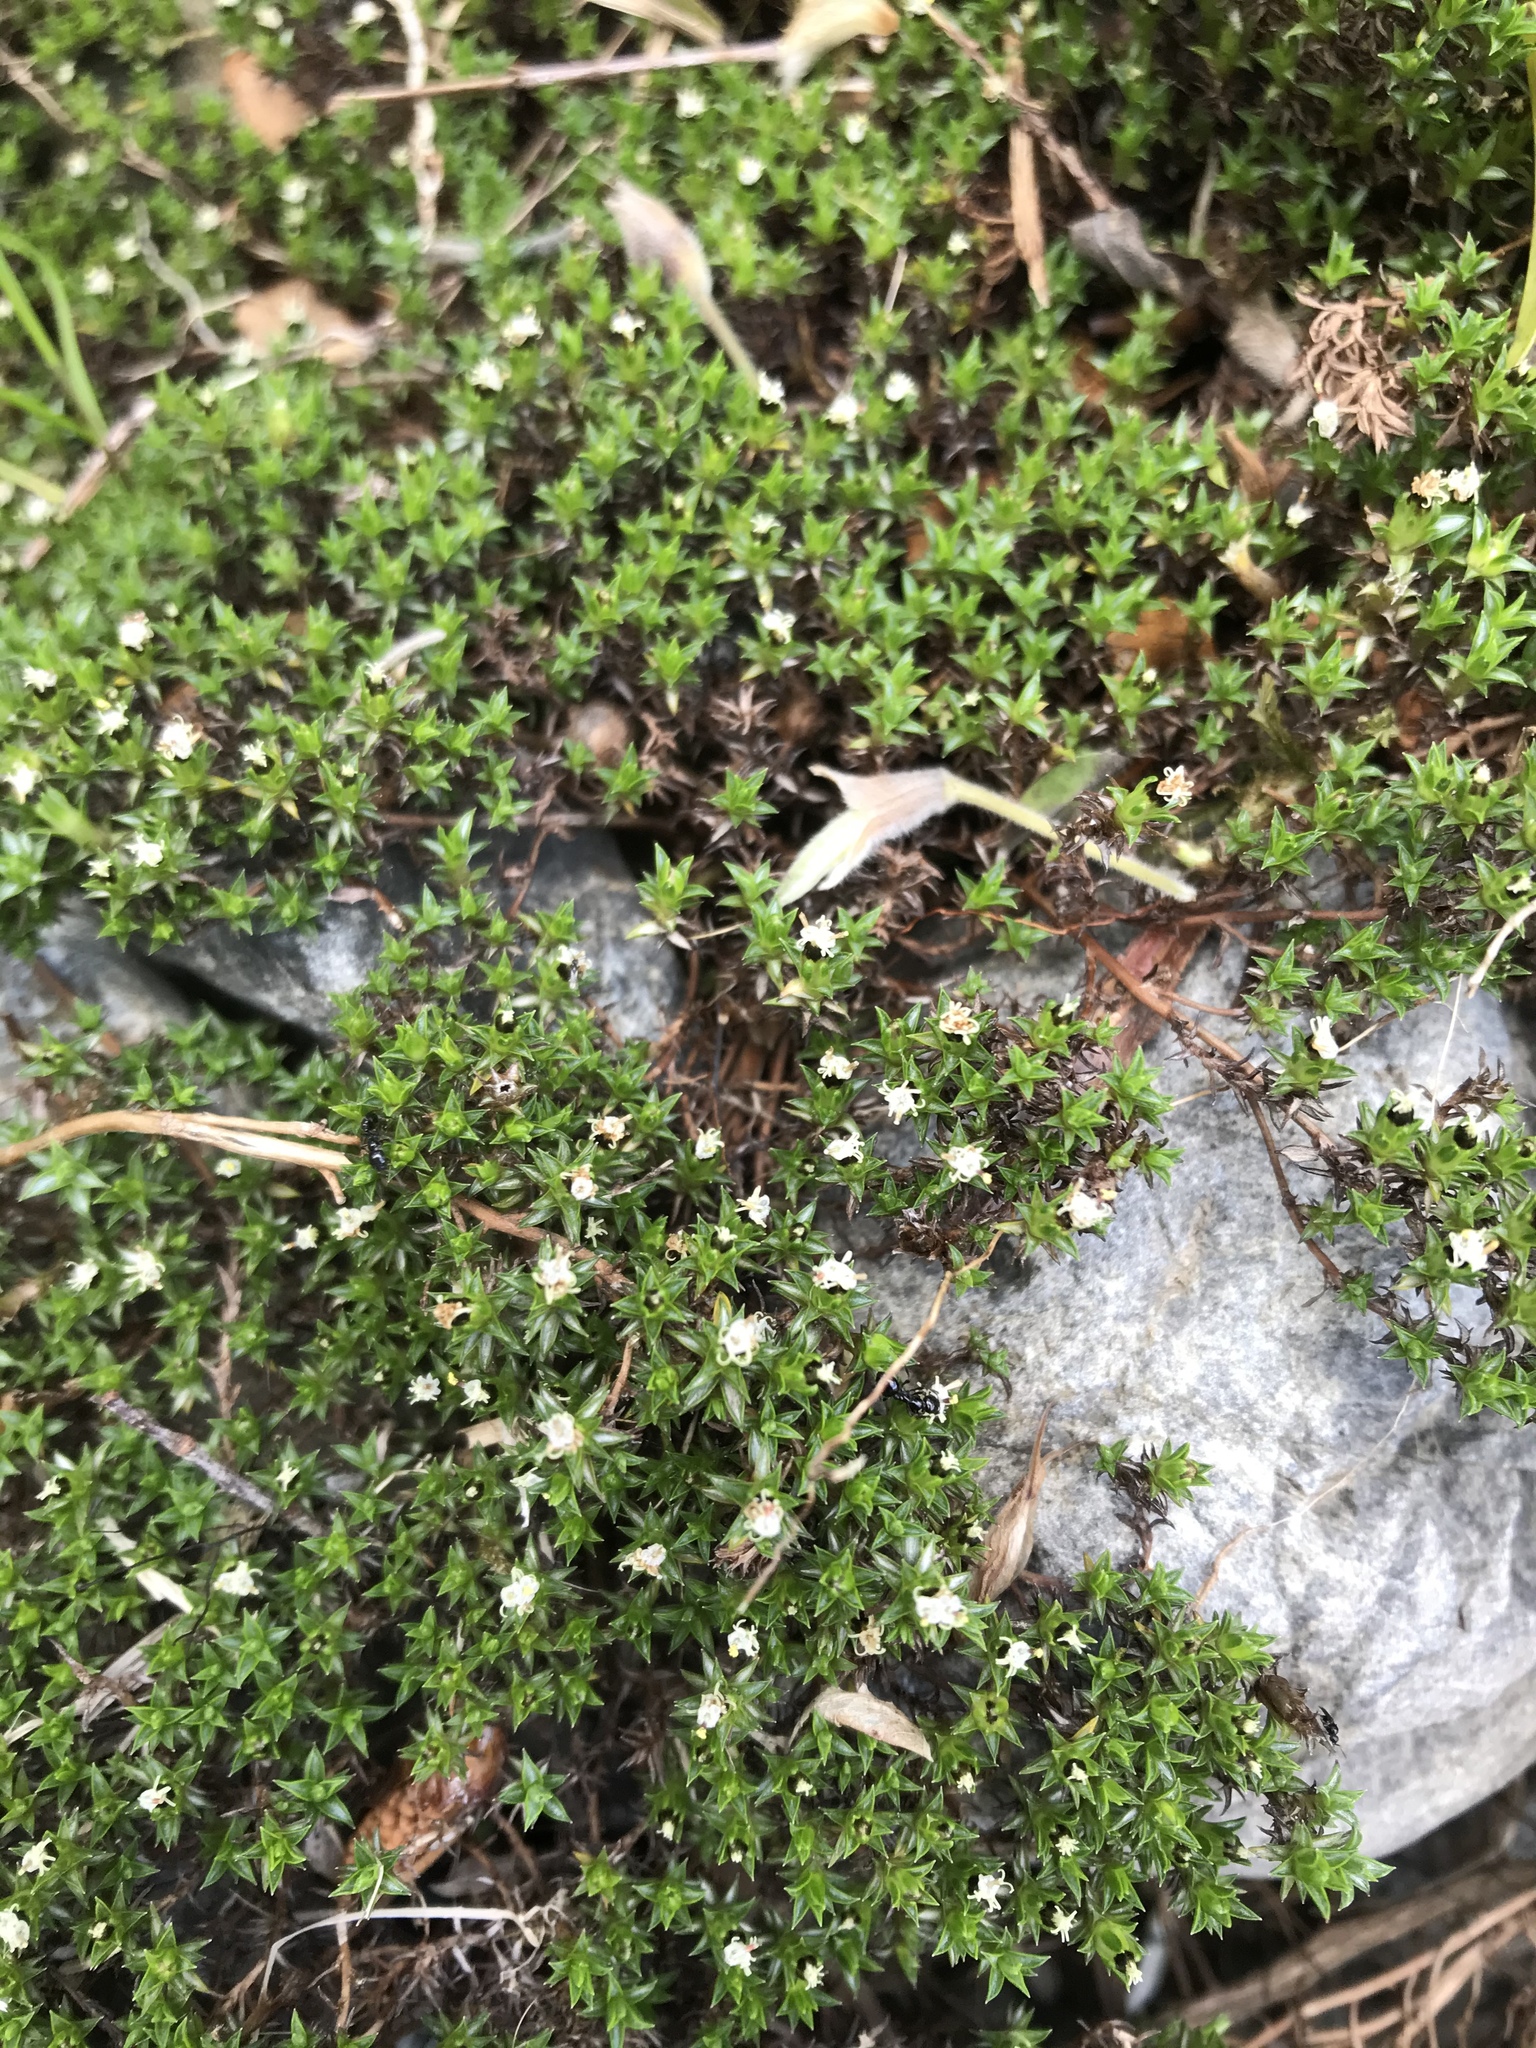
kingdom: Plantae
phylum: Tracheophyta
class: Magnoliopsida
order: Asterales
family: Asteraceae
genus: Raoulia
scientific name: Raoulia tenuicaulis
